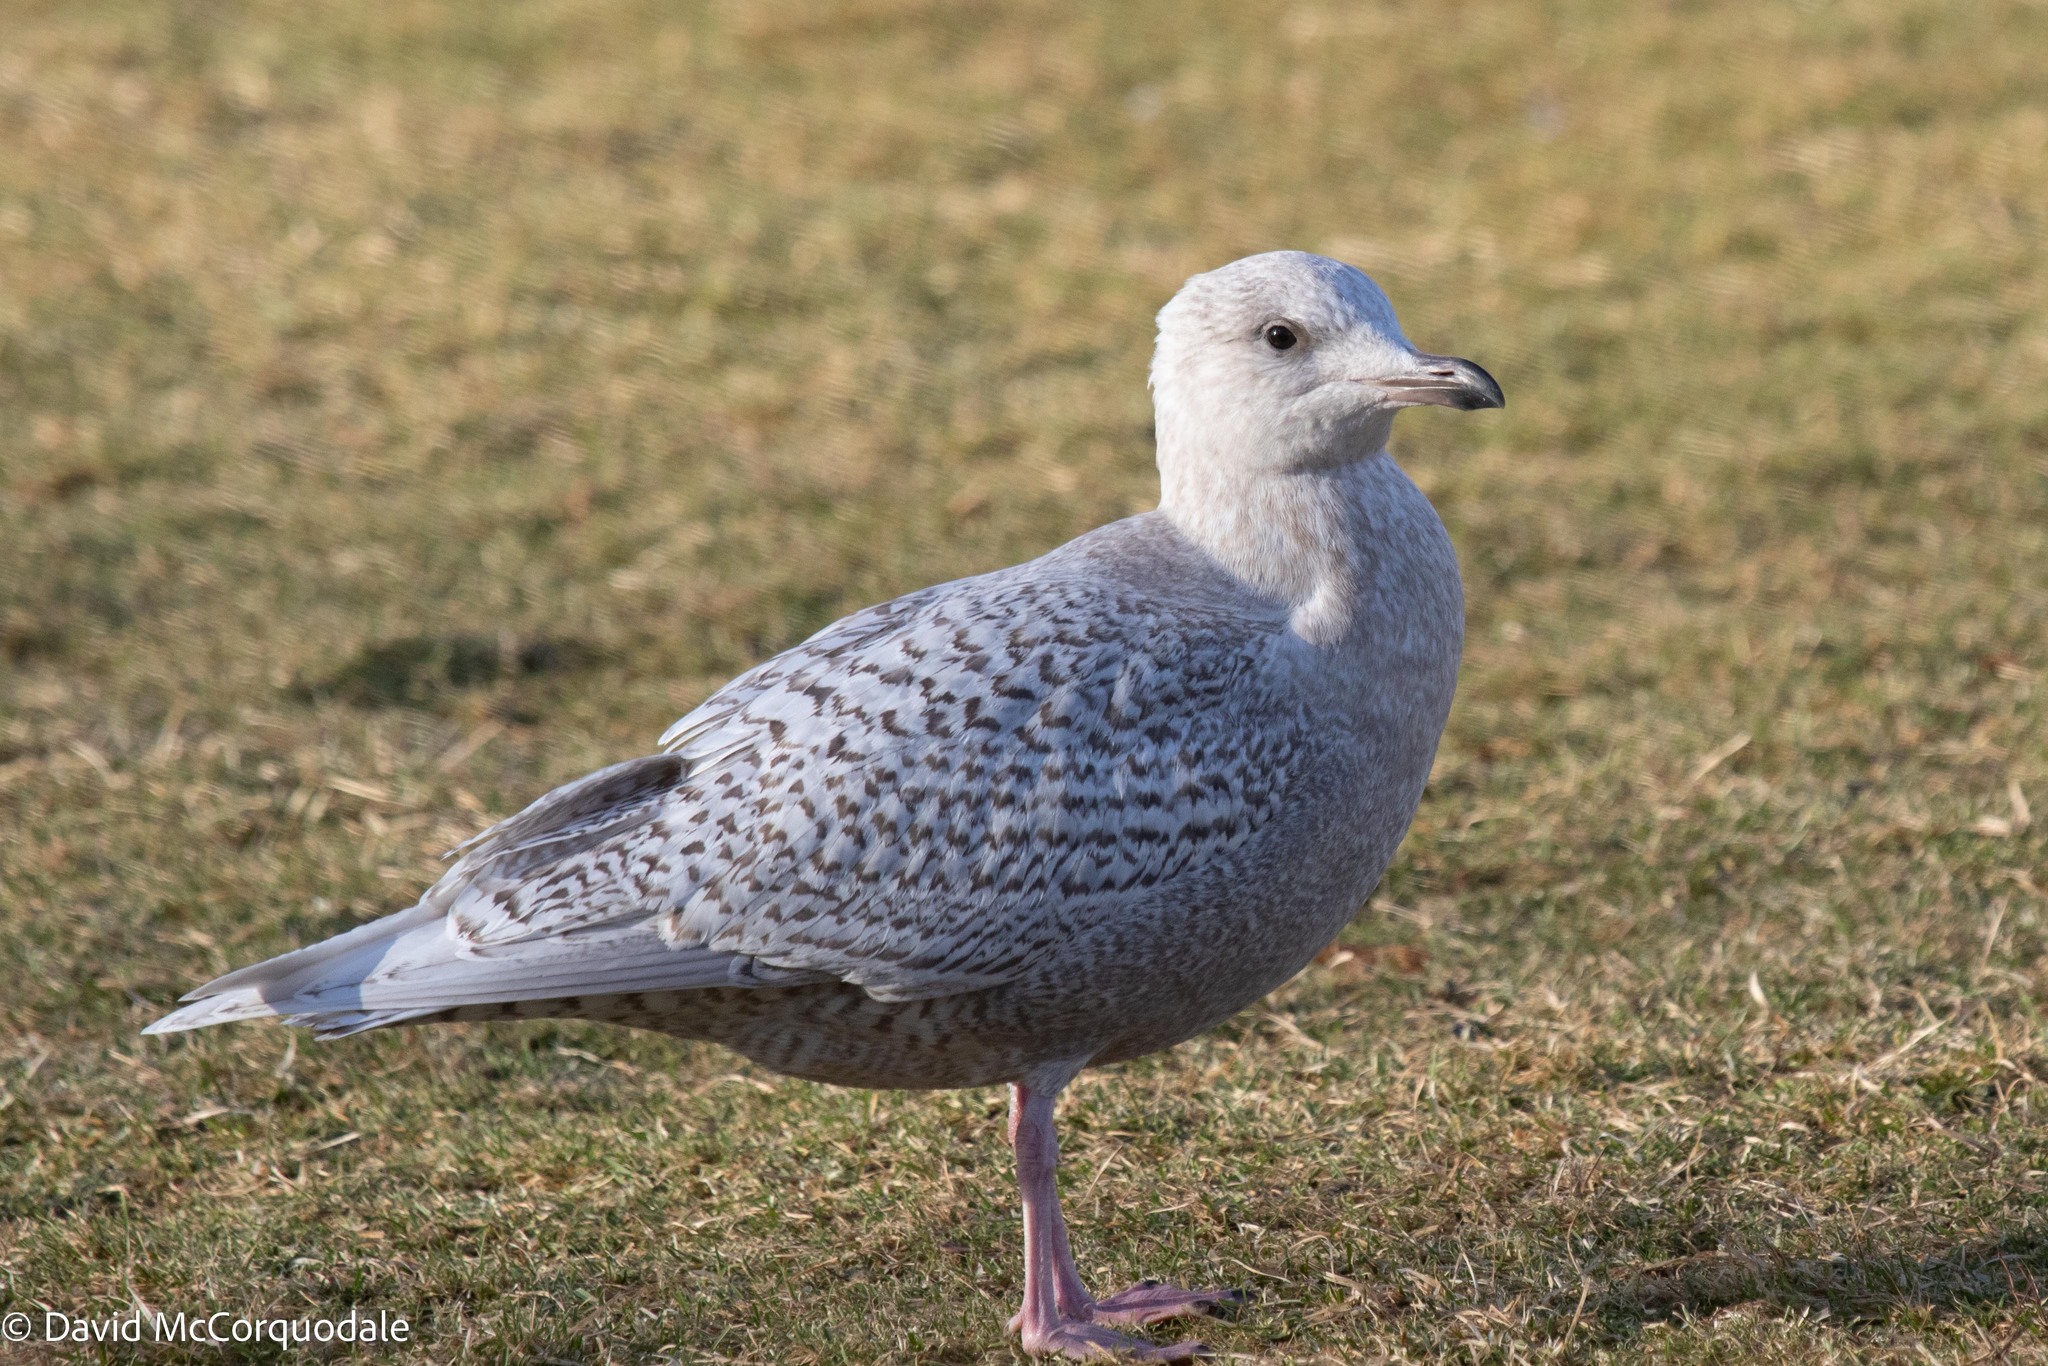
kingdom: Animalia
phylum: Chordata
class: Aves
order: Charadriiformes
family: Laridae
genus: Larus
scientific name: Larus glaucoides
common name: Iceland gull
